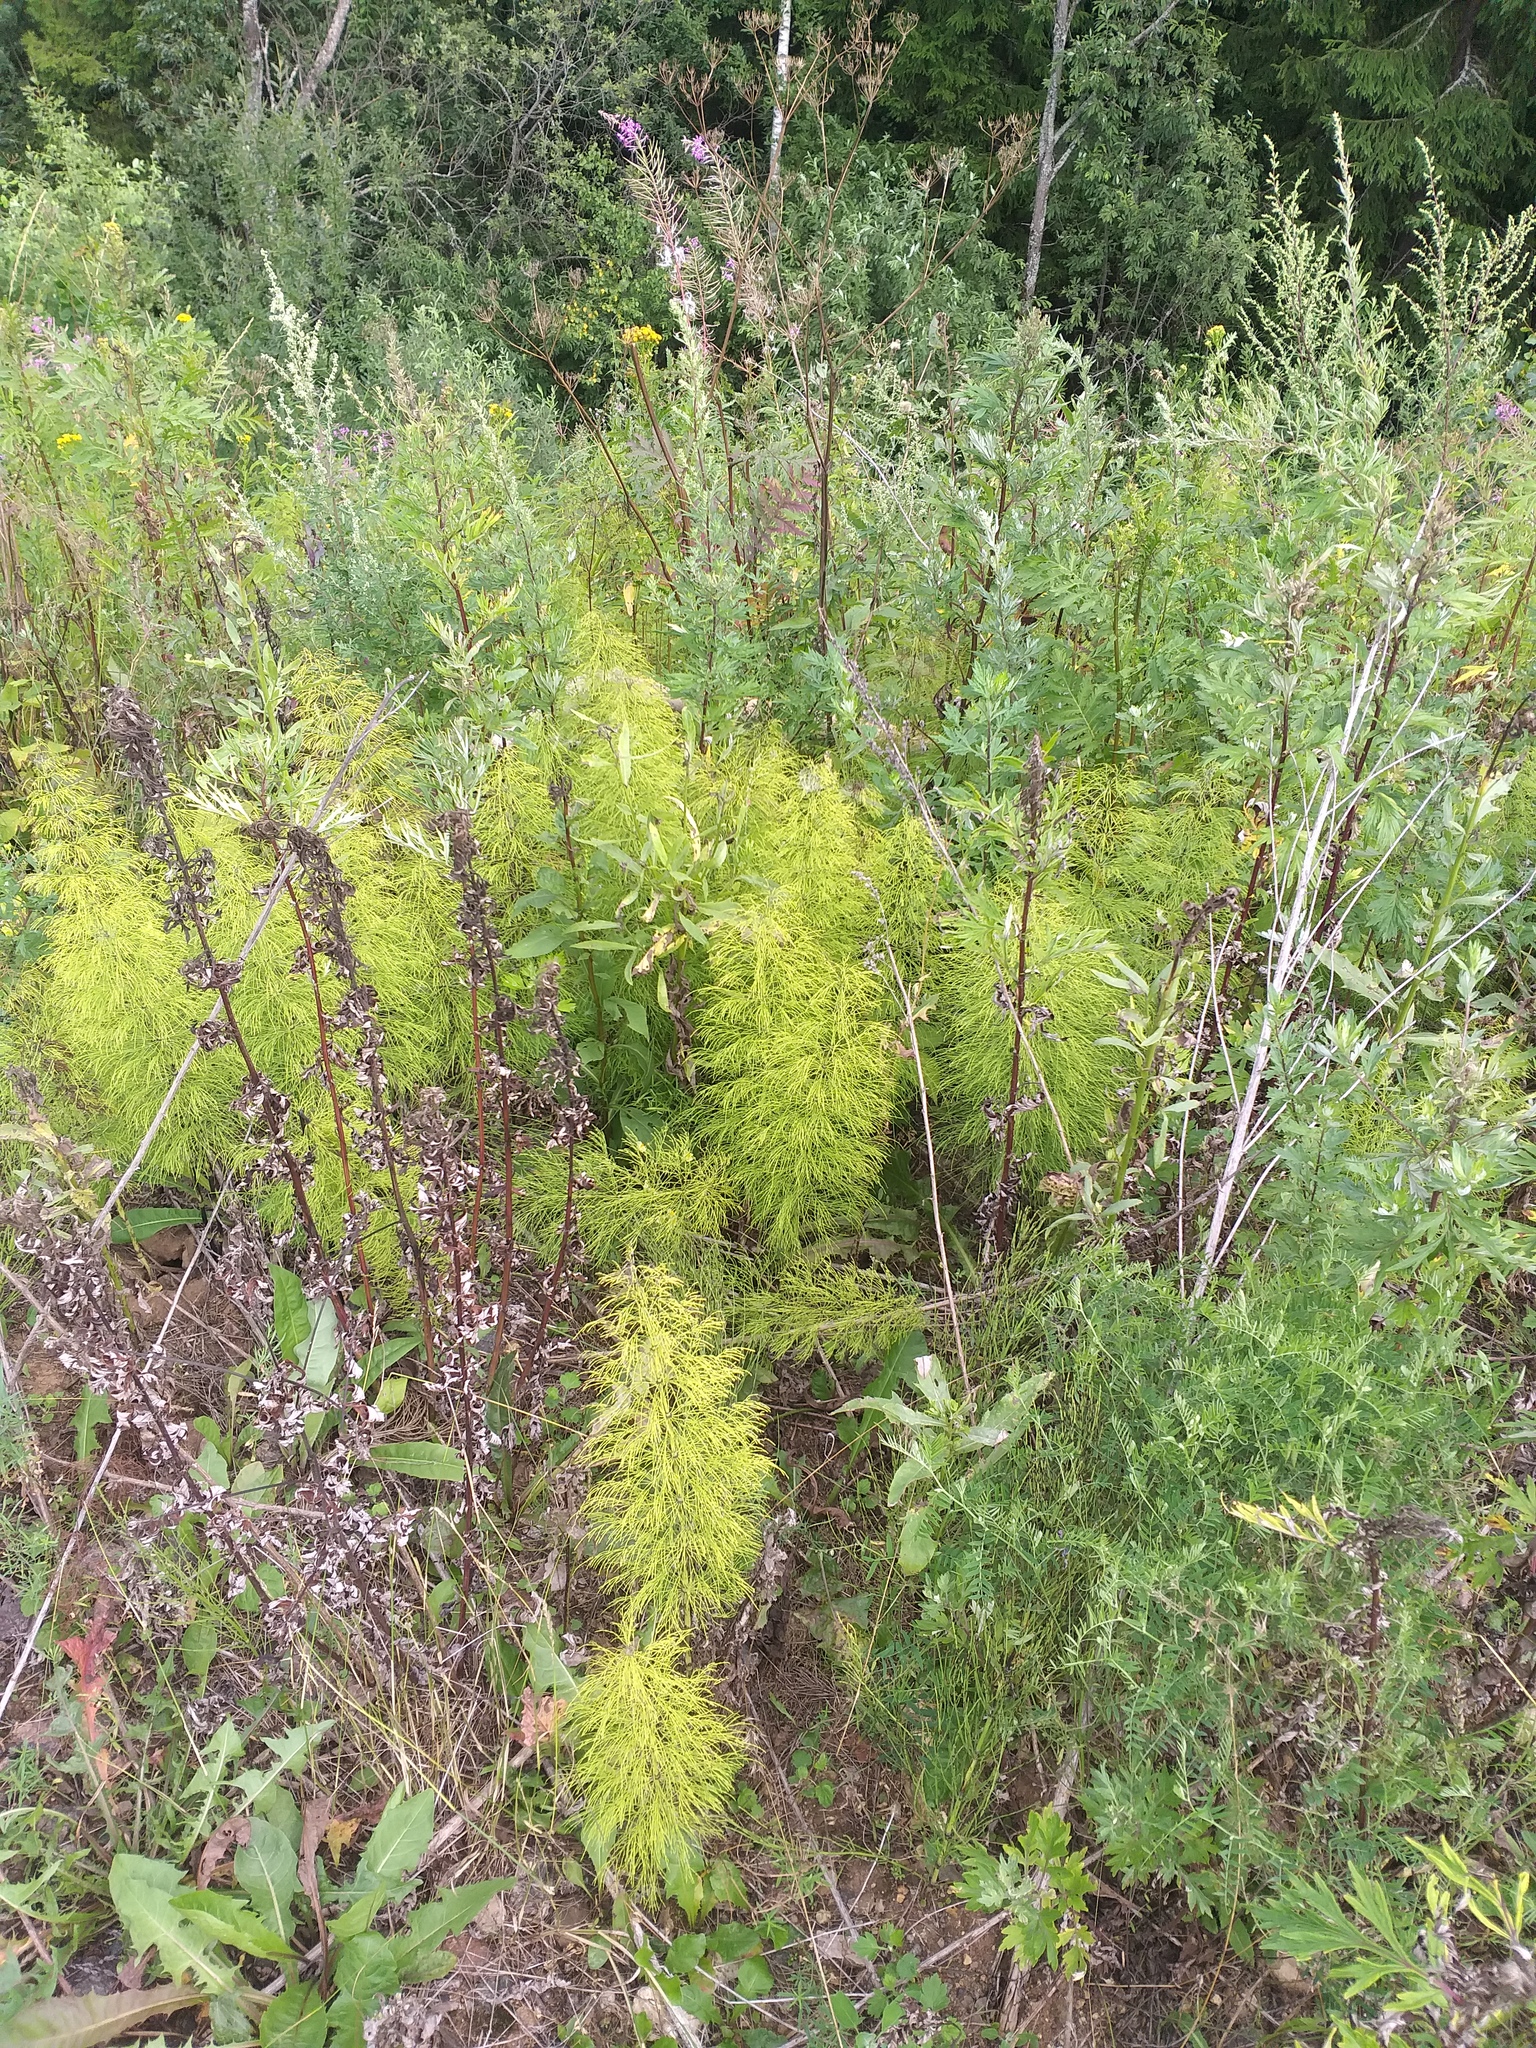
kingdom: Plantae
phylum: Tracheophyta
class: Polypodiopsida
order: Equisetales
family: Equisetaceae
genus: Equisetum
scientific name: Equisetum sylvaticum
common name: Wood horsetail
